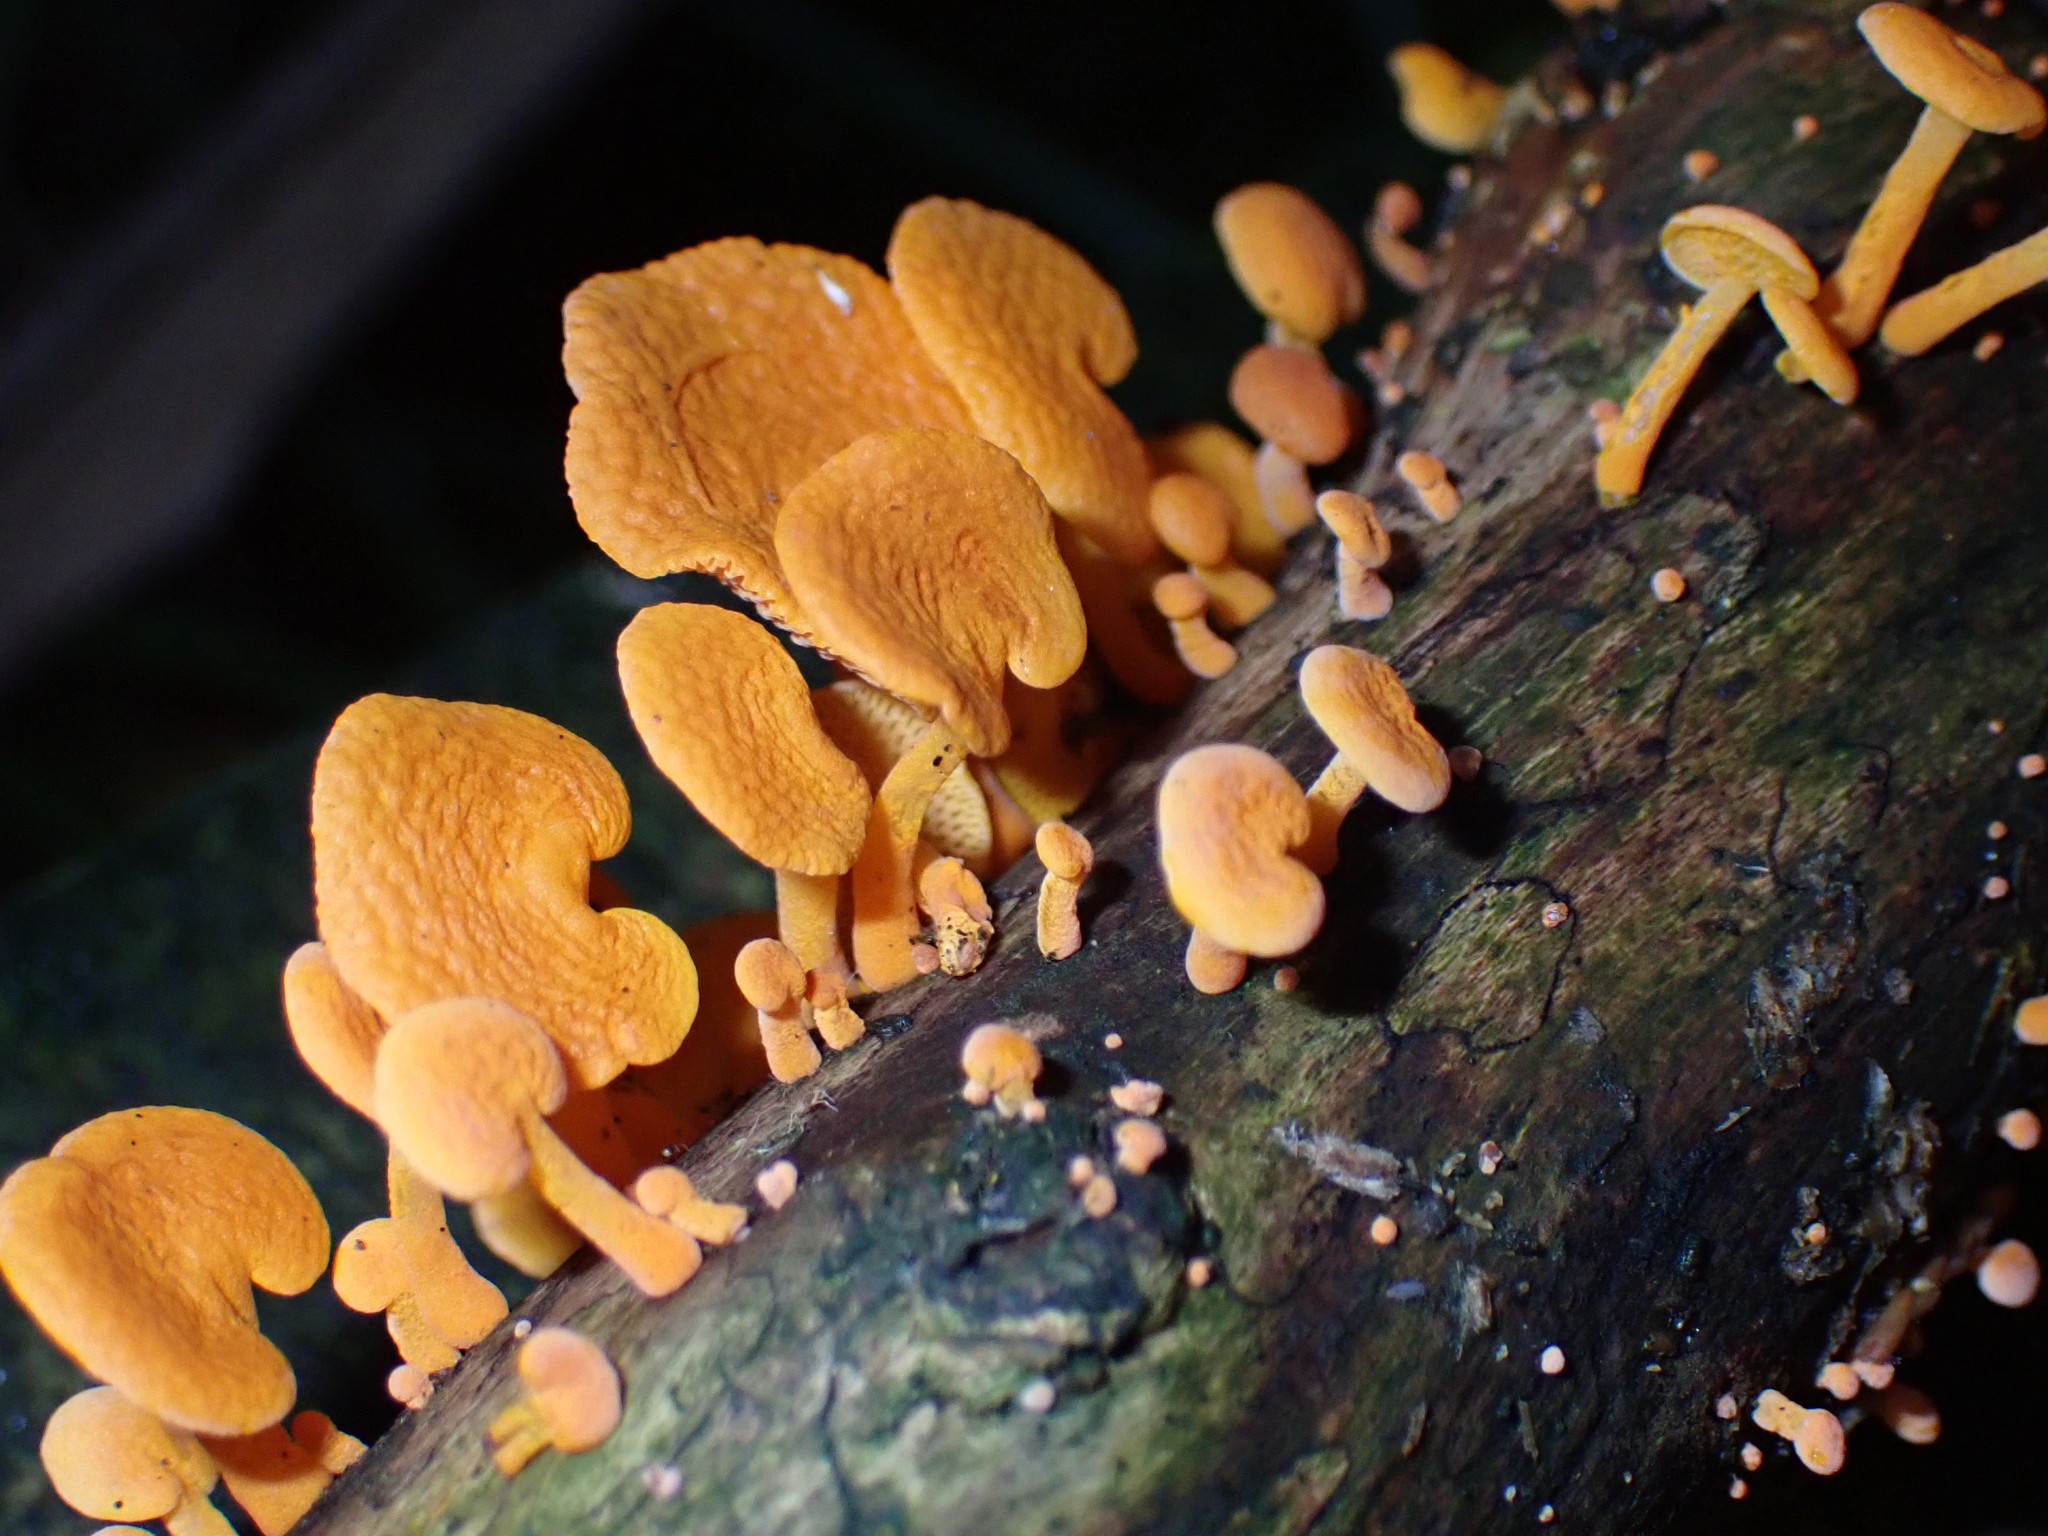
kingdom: Fungi
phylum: Basidiomycota
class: Agaricomycetes
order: Agaricales
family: Mycenaceae
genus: Favolaschia
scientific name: Favolaschia claudopus
